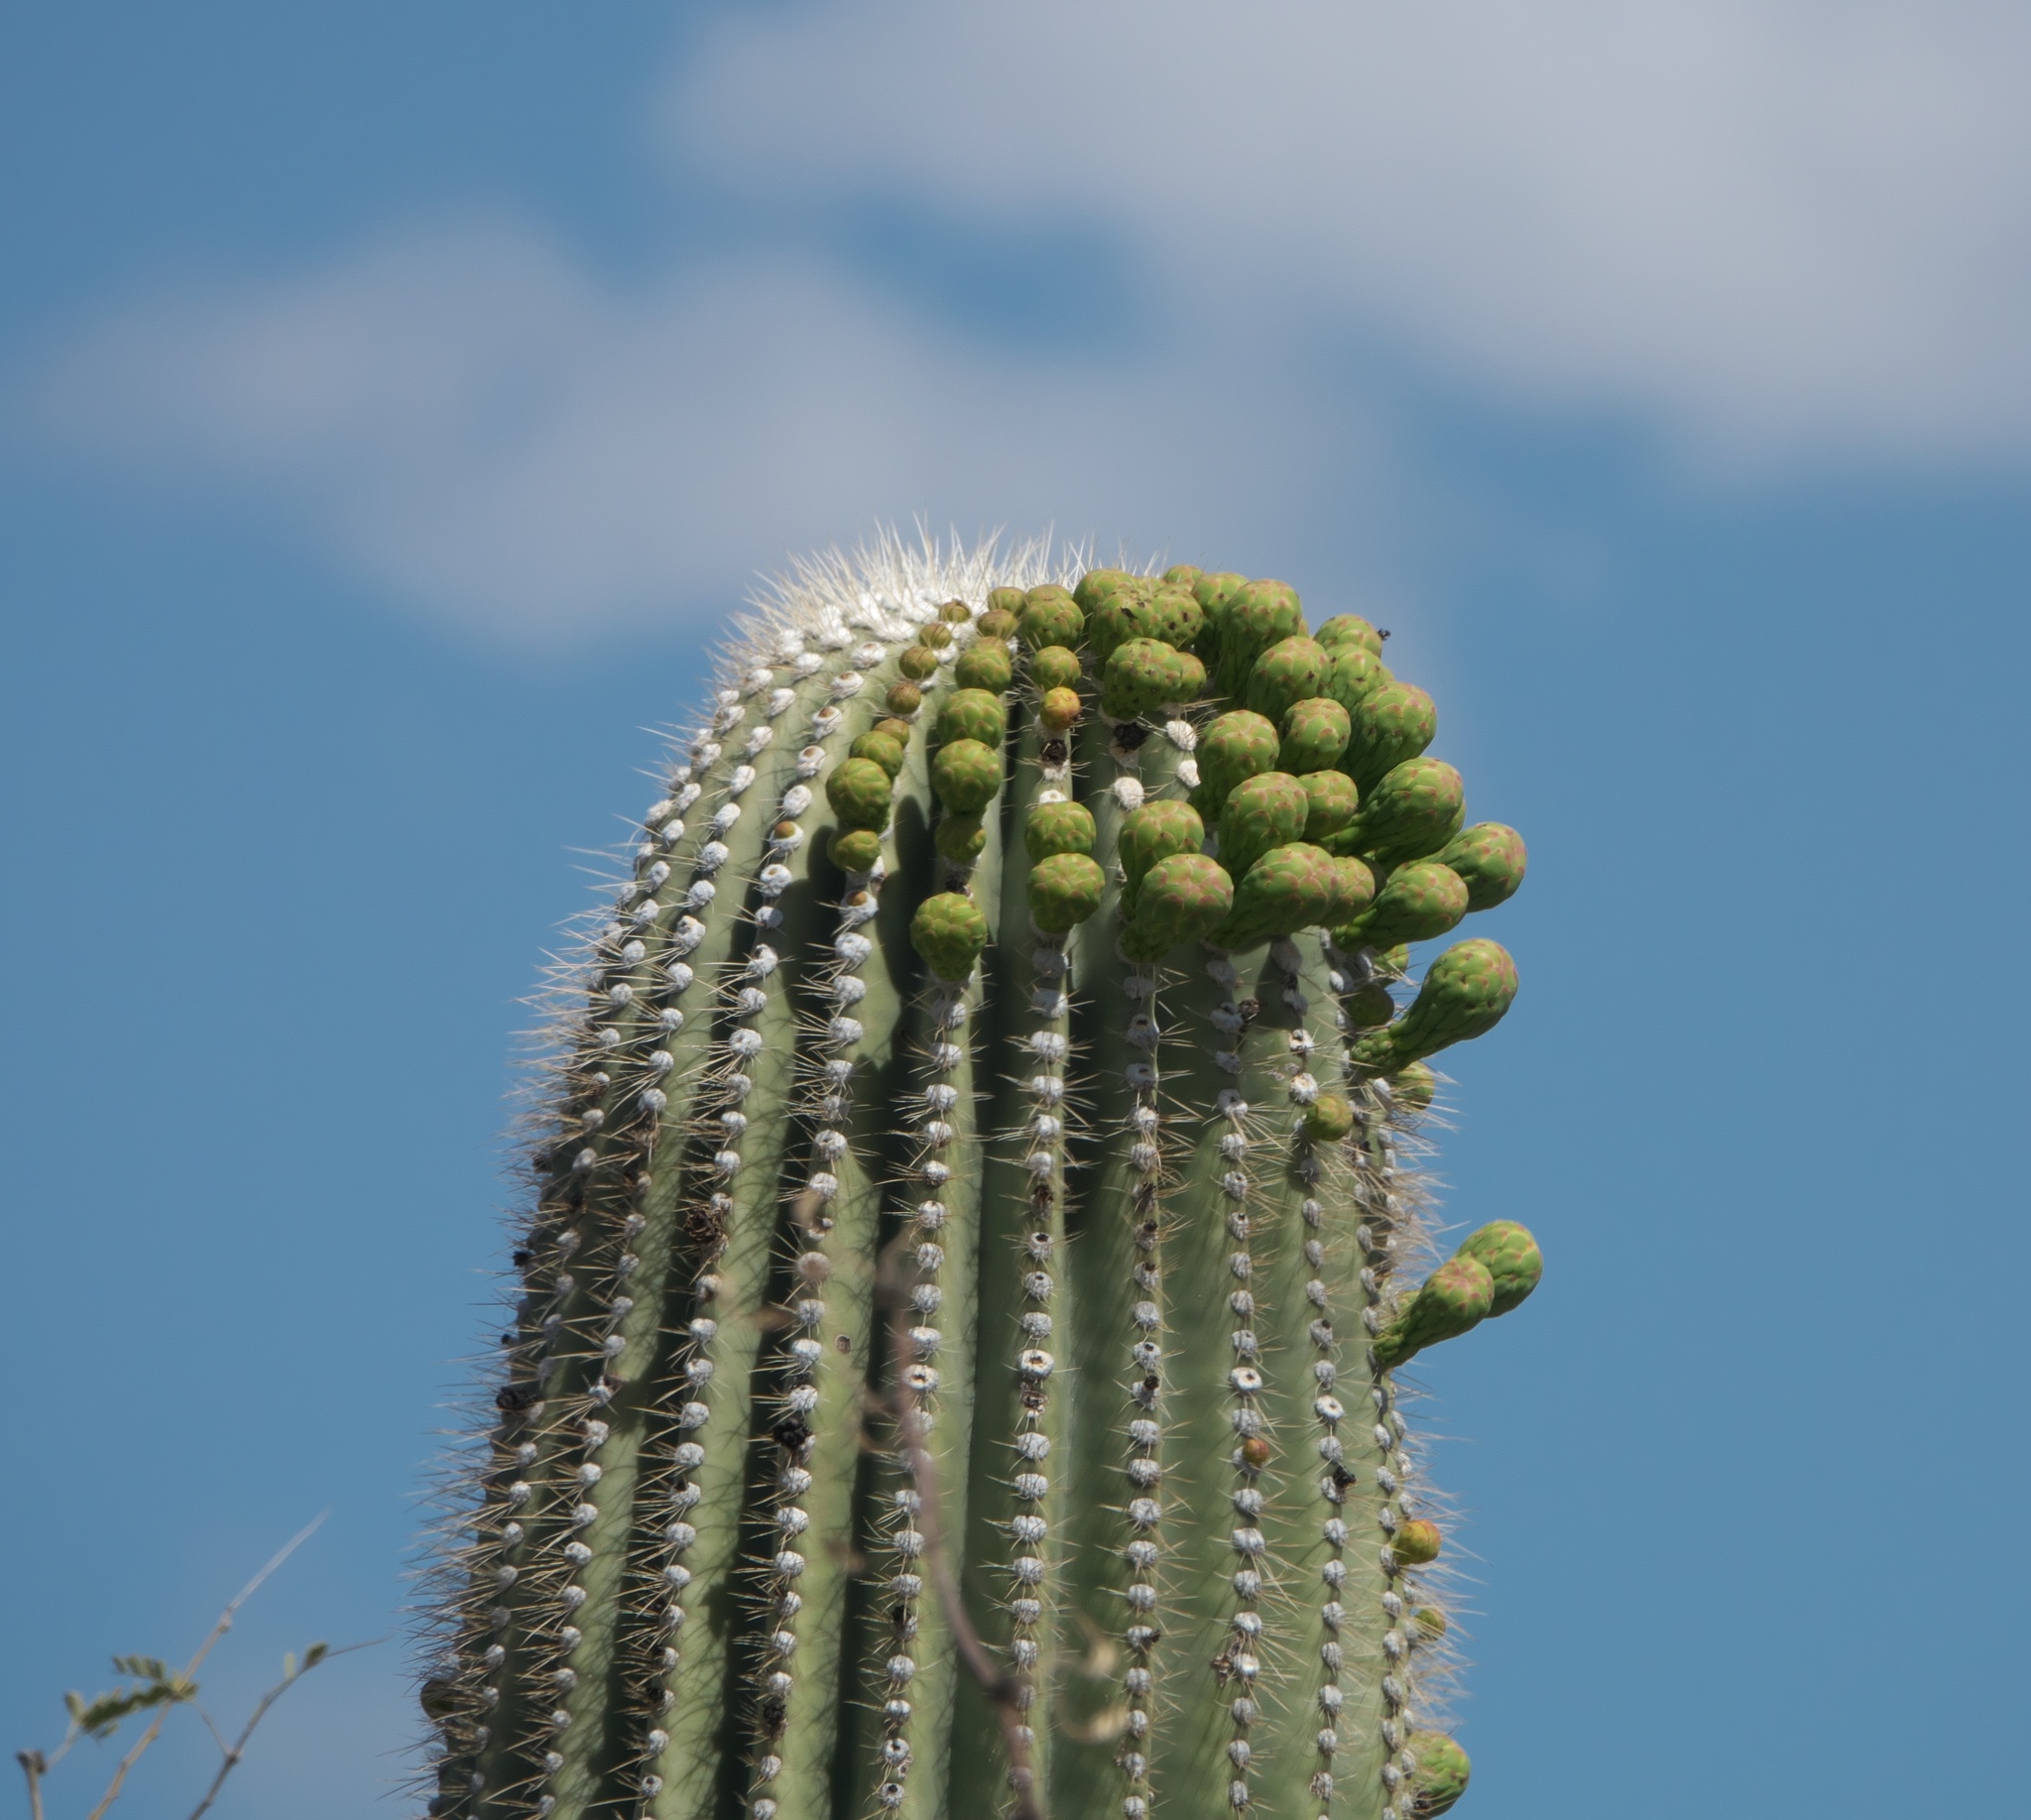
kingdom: Plantae
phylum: Tracheophyta
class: Magnoliopsida
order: Caryophyllales
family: Cactaceae
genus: Carnegiea
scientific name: Carnegiea gigantea
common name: Saguaro
